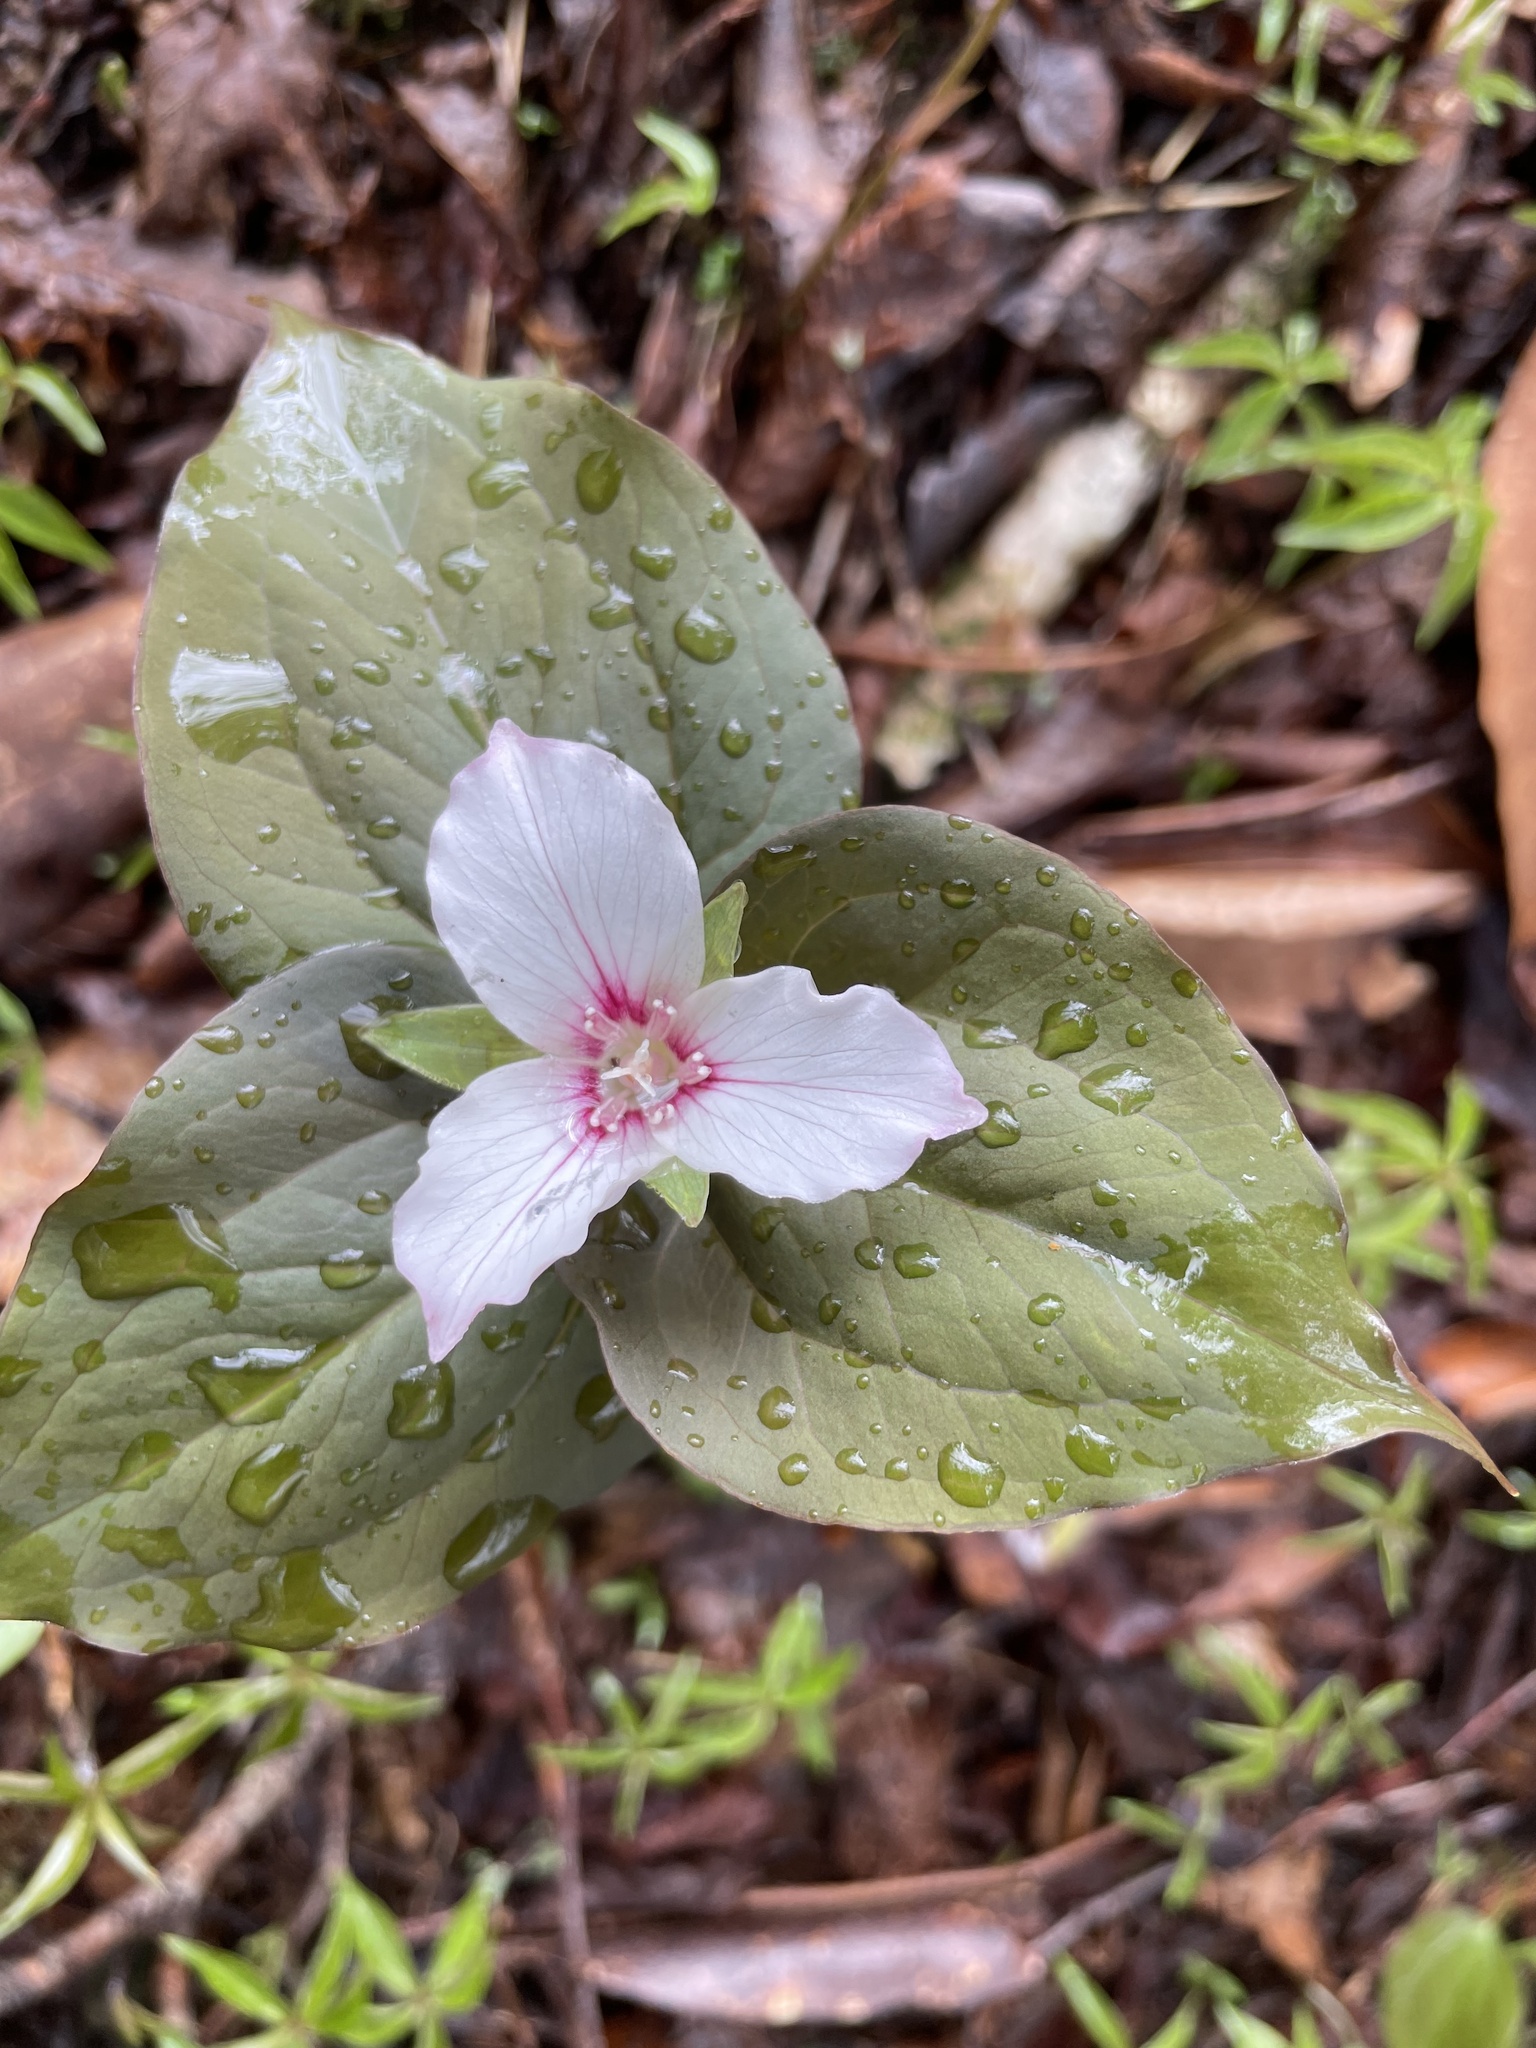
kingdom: Plantae
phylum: Tracheophyta
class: Liliopsida
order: Liliales
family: Melanthiaceae
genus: Trillium
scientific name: Trillium undulatum
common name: Paint trillium
